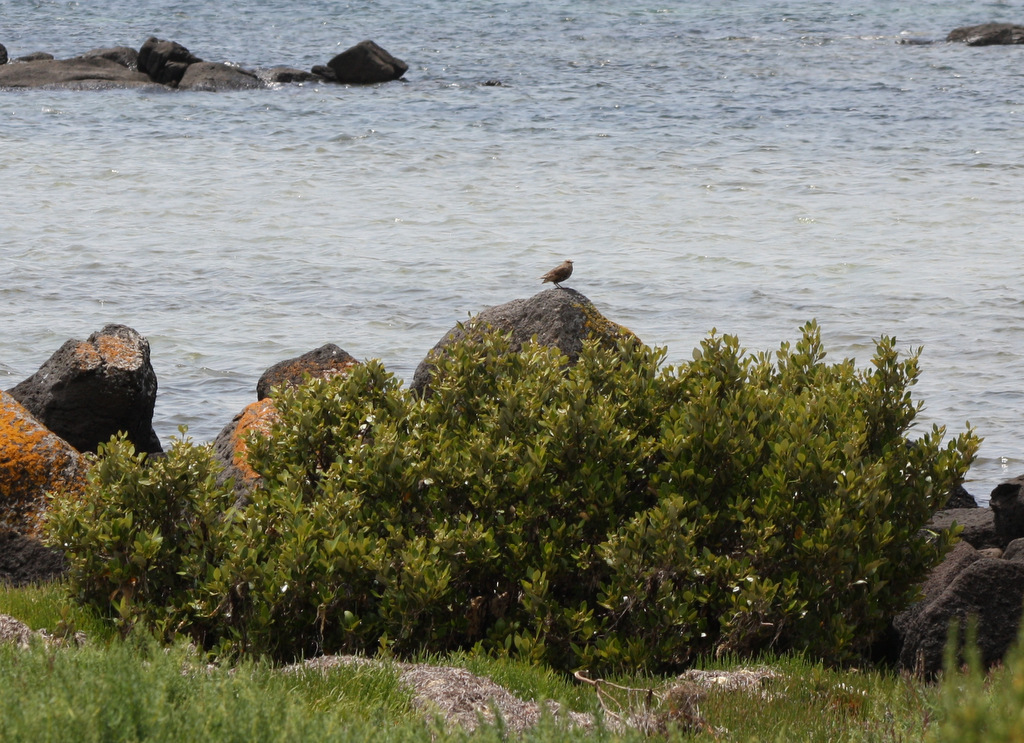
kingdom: Plantae
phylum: Tracheophyta
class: Magnoliopsida
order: Lamiales
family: Acanthaceae
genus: Avicennia
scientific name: Avicennia marina
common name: Gray mangrove
